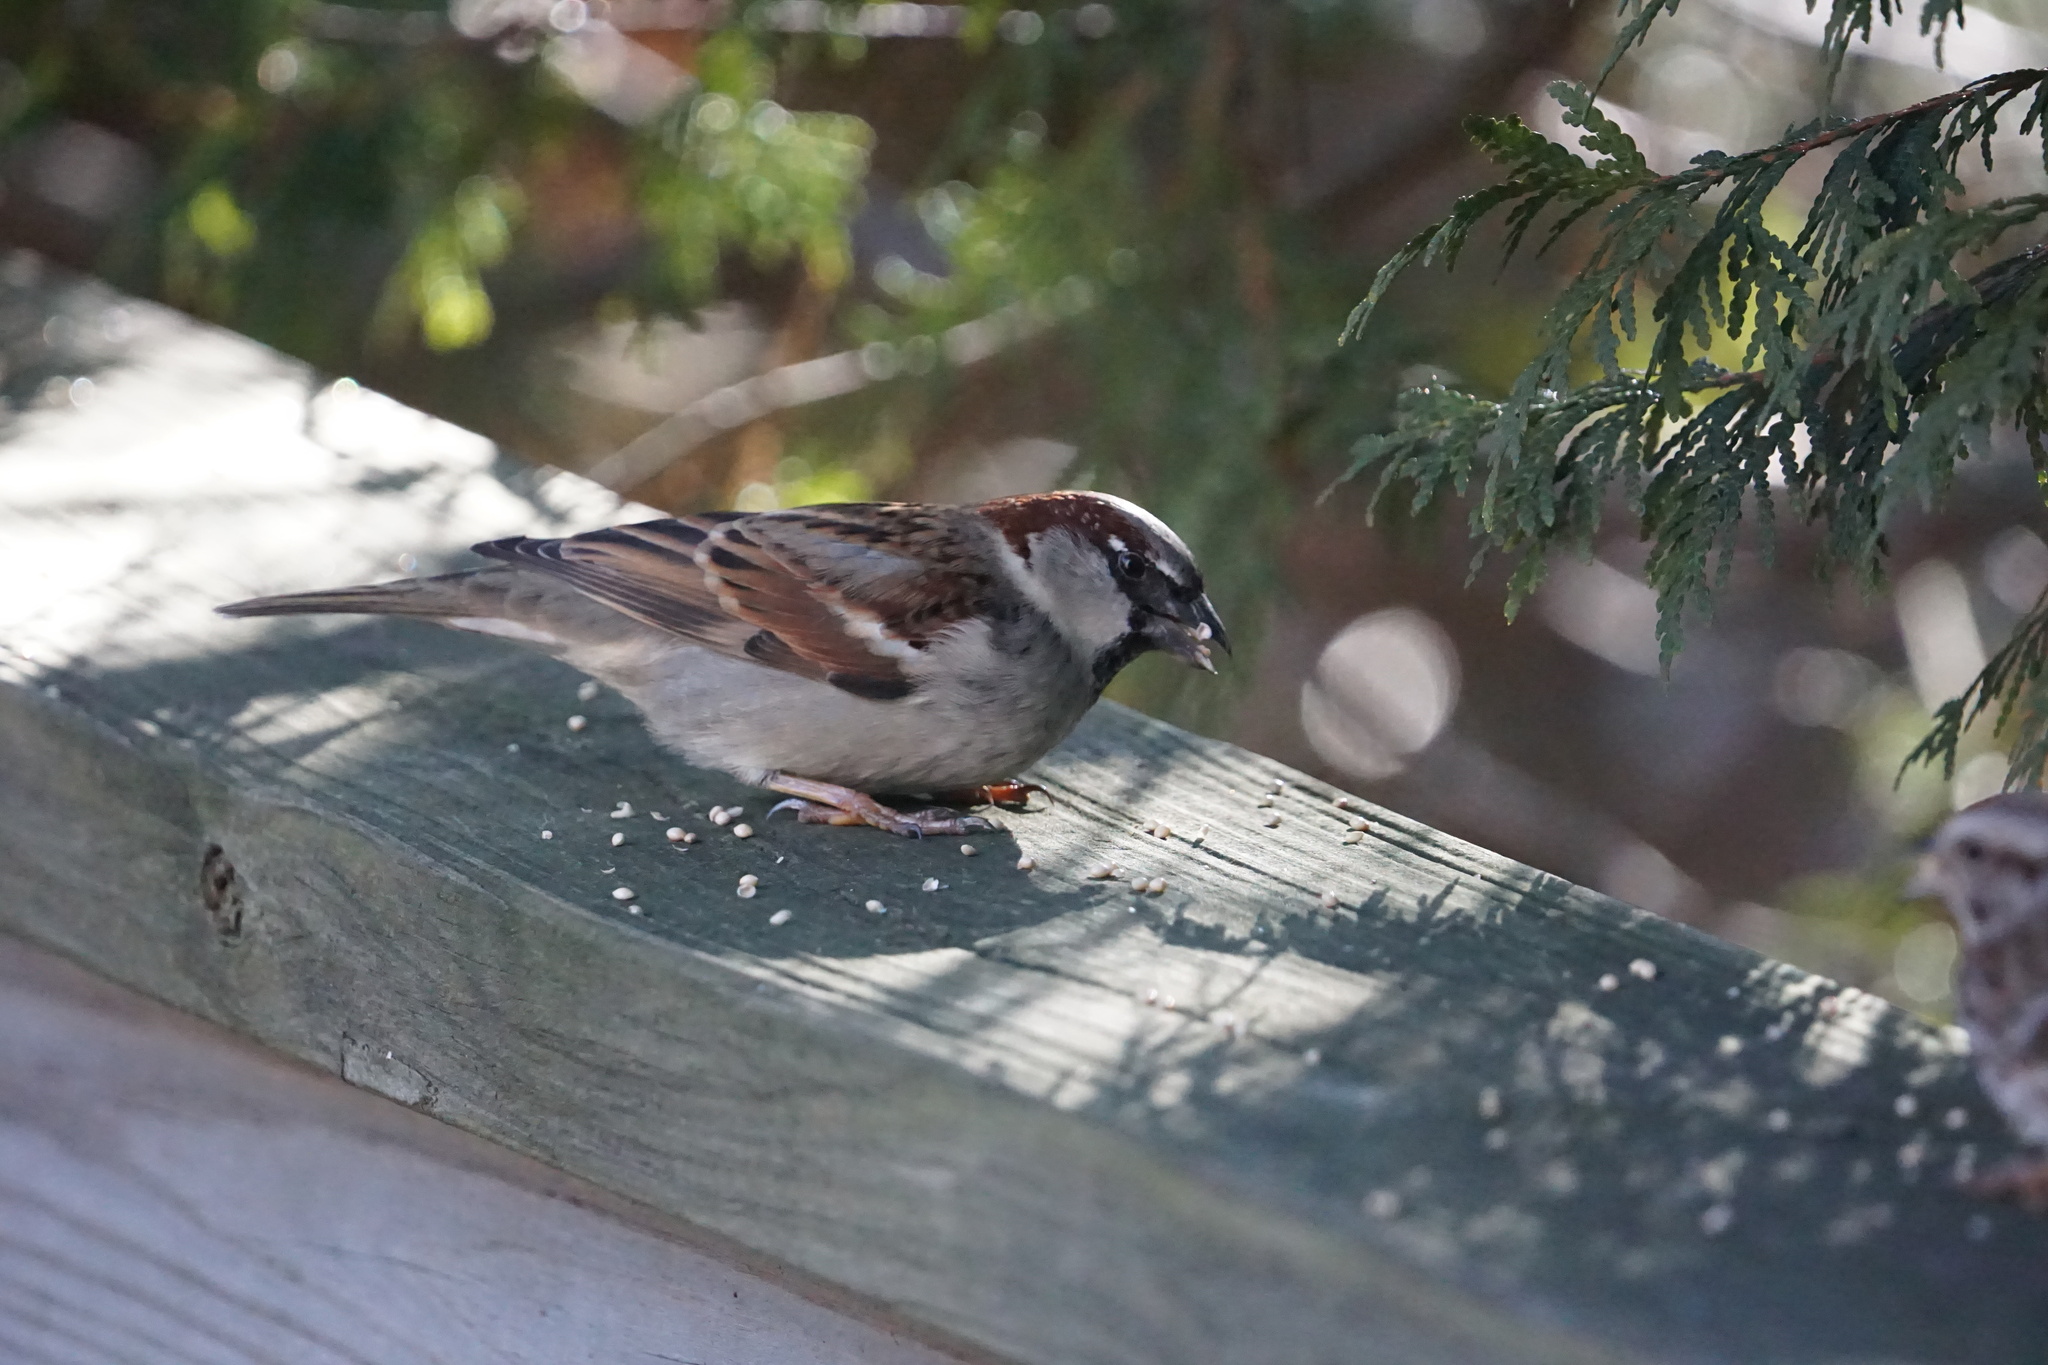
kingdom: Animalia
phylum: Chordata
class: Aves
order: Passeriformes
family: Passeridae
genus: Passer
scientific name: Passer domesticus
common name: House sparrow
